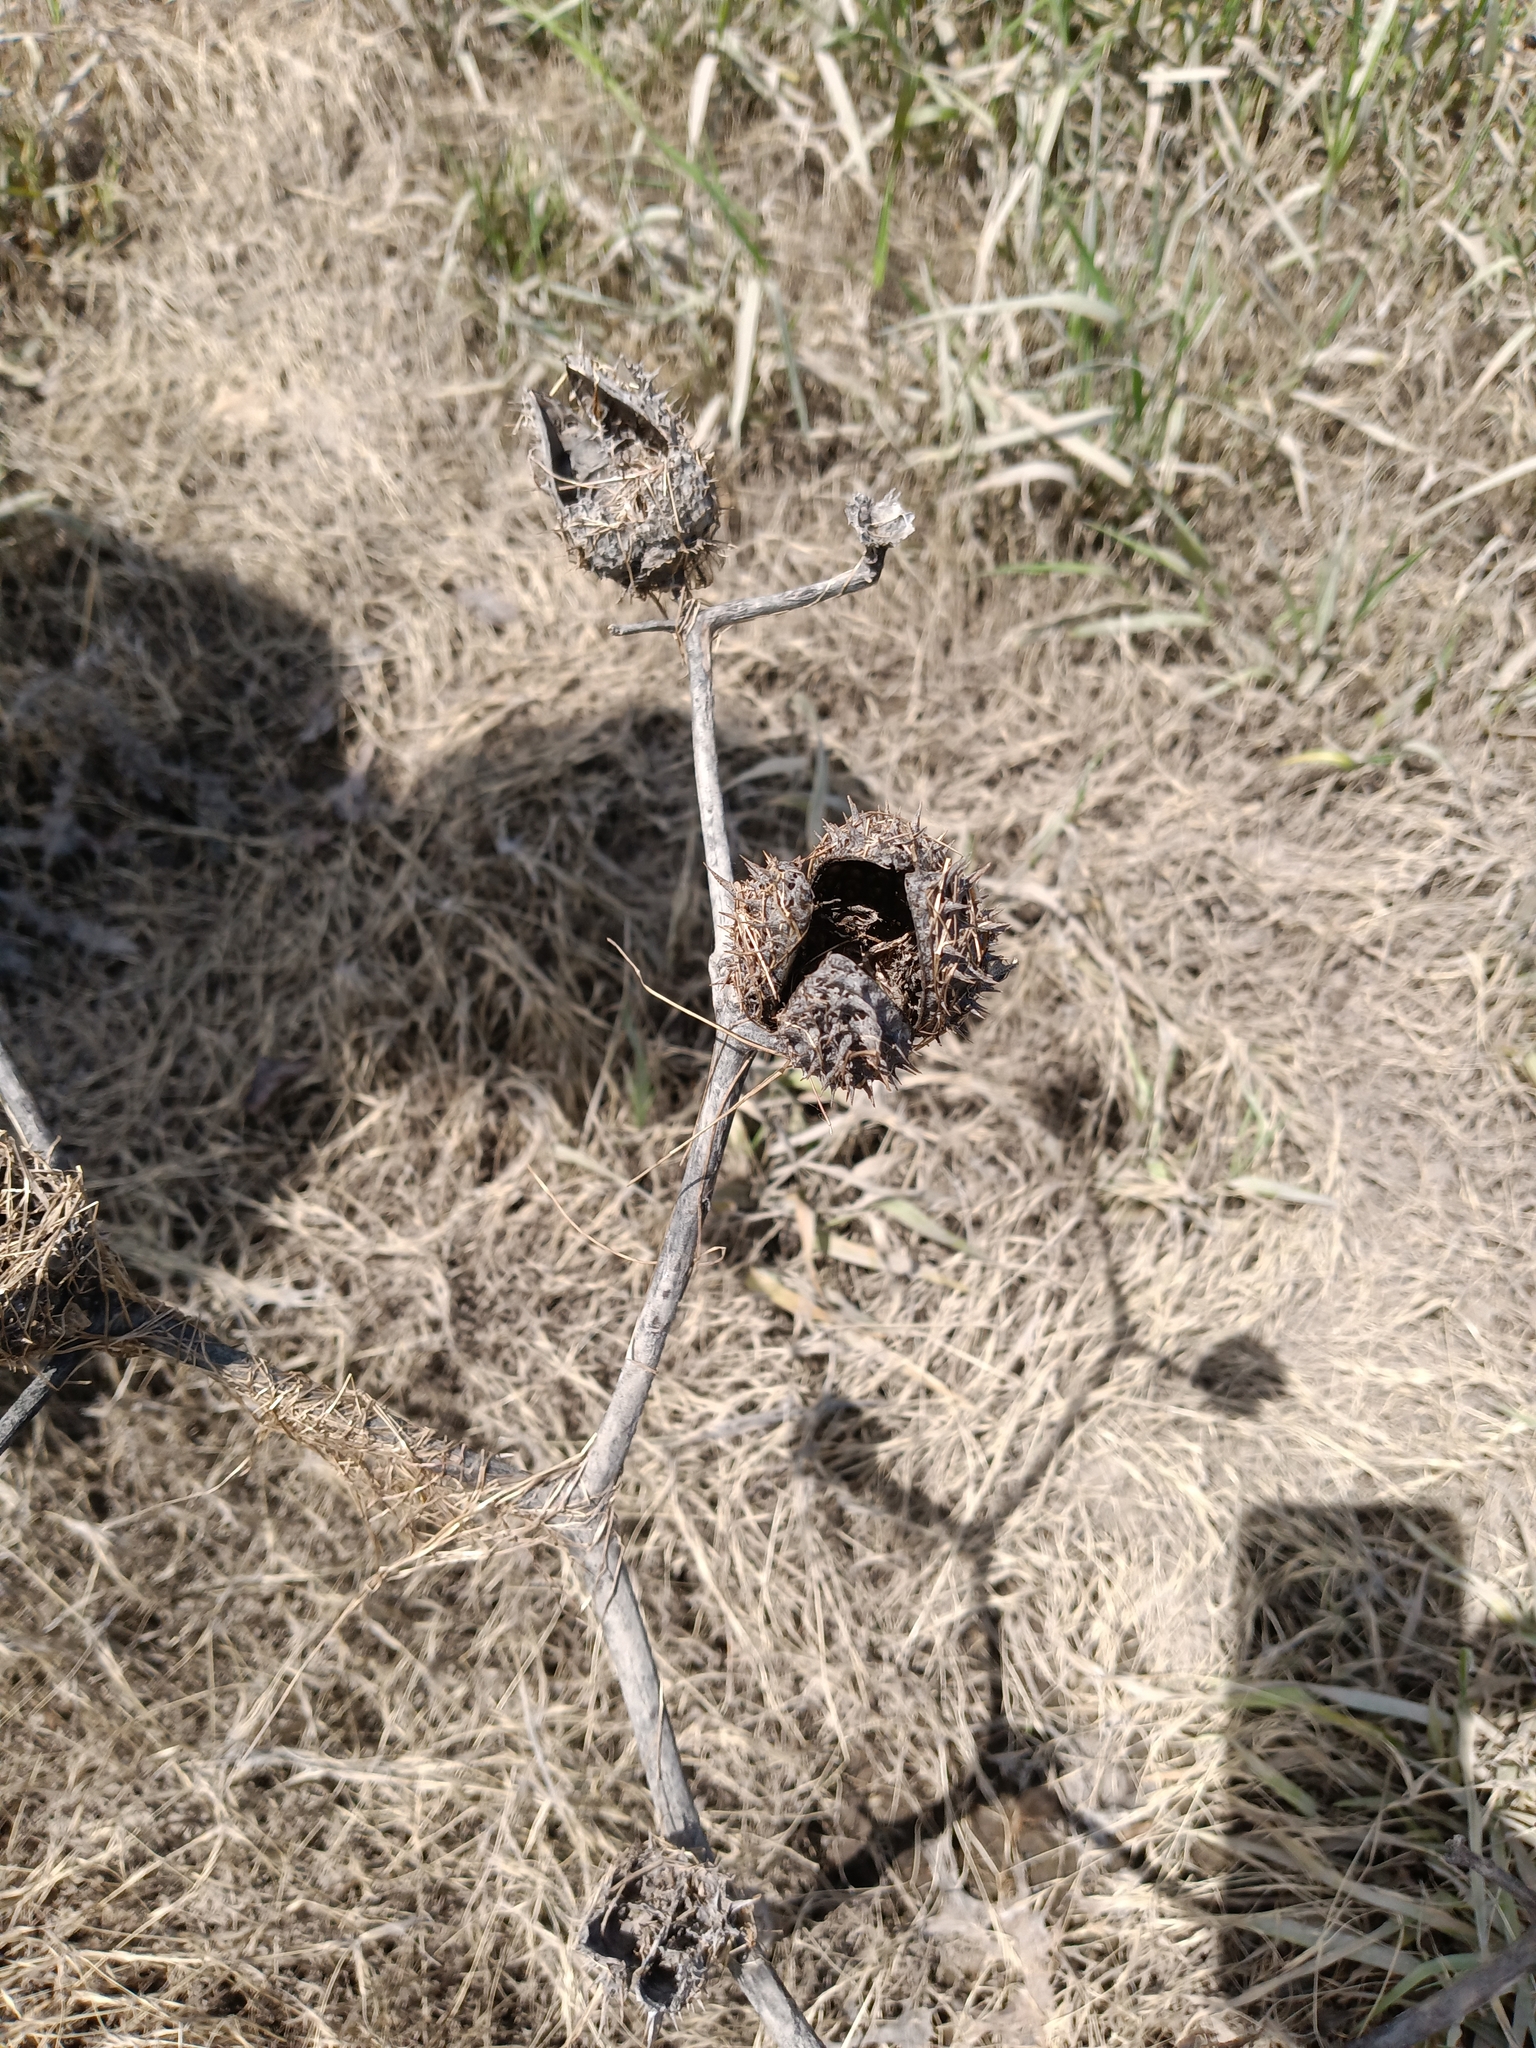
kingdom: Plantae
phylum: Tracheophyta
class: Magnoliopsida
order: Solanales
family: Solanaceae
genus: Datura
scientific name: Datura stramonium
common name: Thorn-apple
